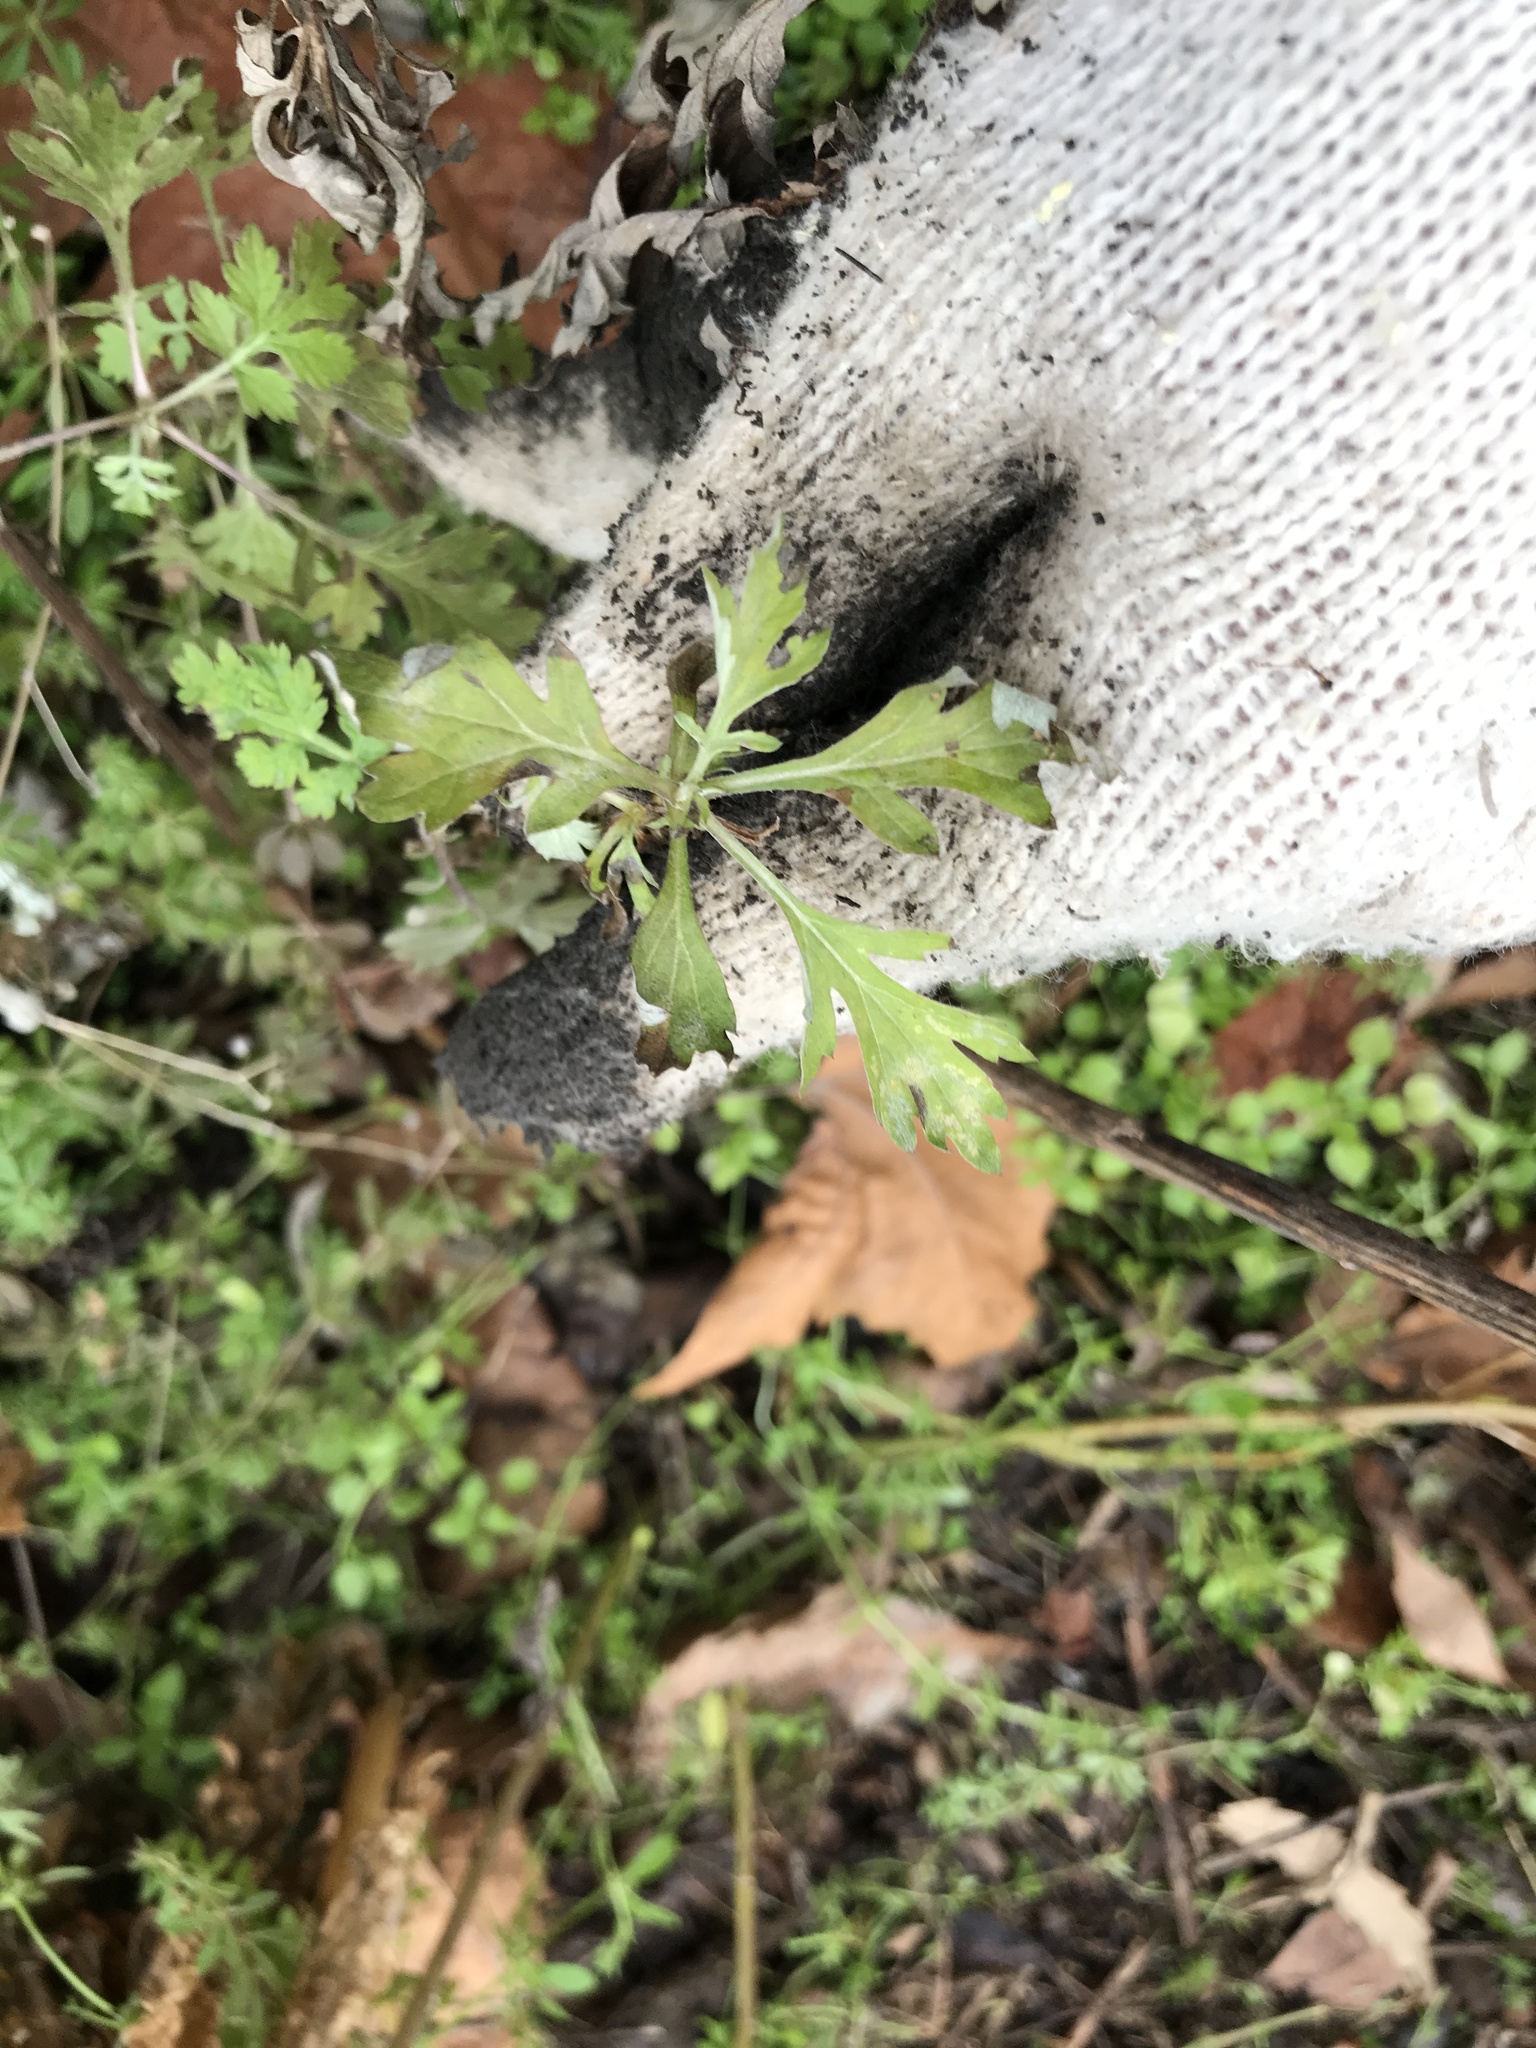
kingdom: Plantae
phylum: Tracheophyta
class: Magnoliopsida
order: Asterales
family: Asteraceae
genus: Artemisia
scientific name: Artemisia vulgaris
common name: Mugwort
